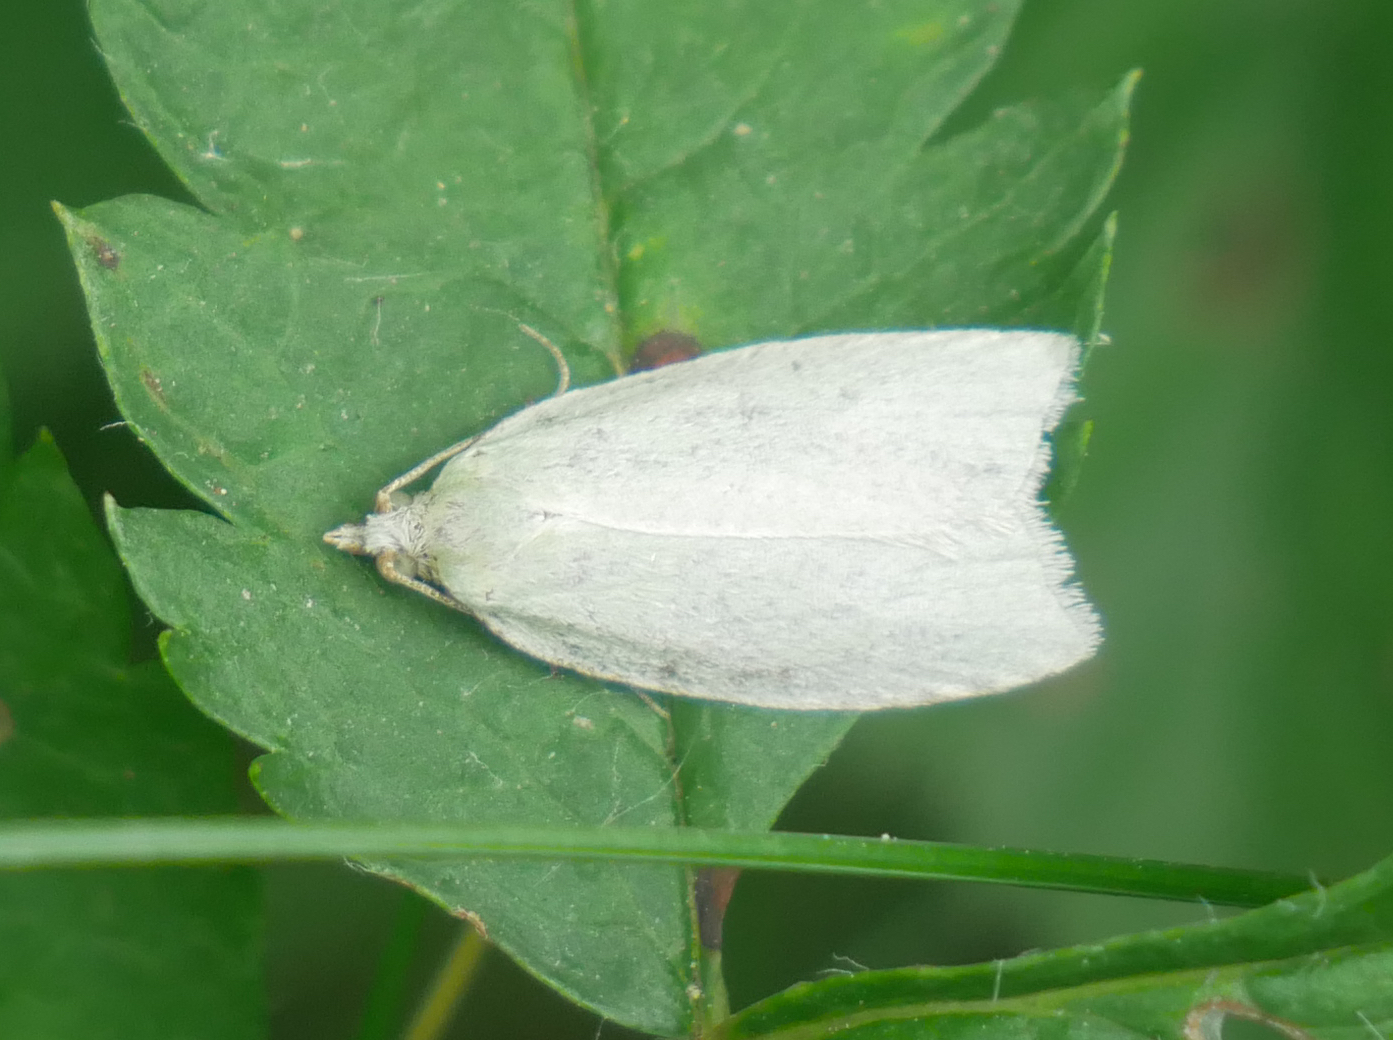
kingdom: Animalia
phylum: Arthropoda
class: Insecta
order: Lepidoptera
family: Tortricidae
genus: Tortrix
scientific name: Tortrix viridana
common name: Green oak tortrix
